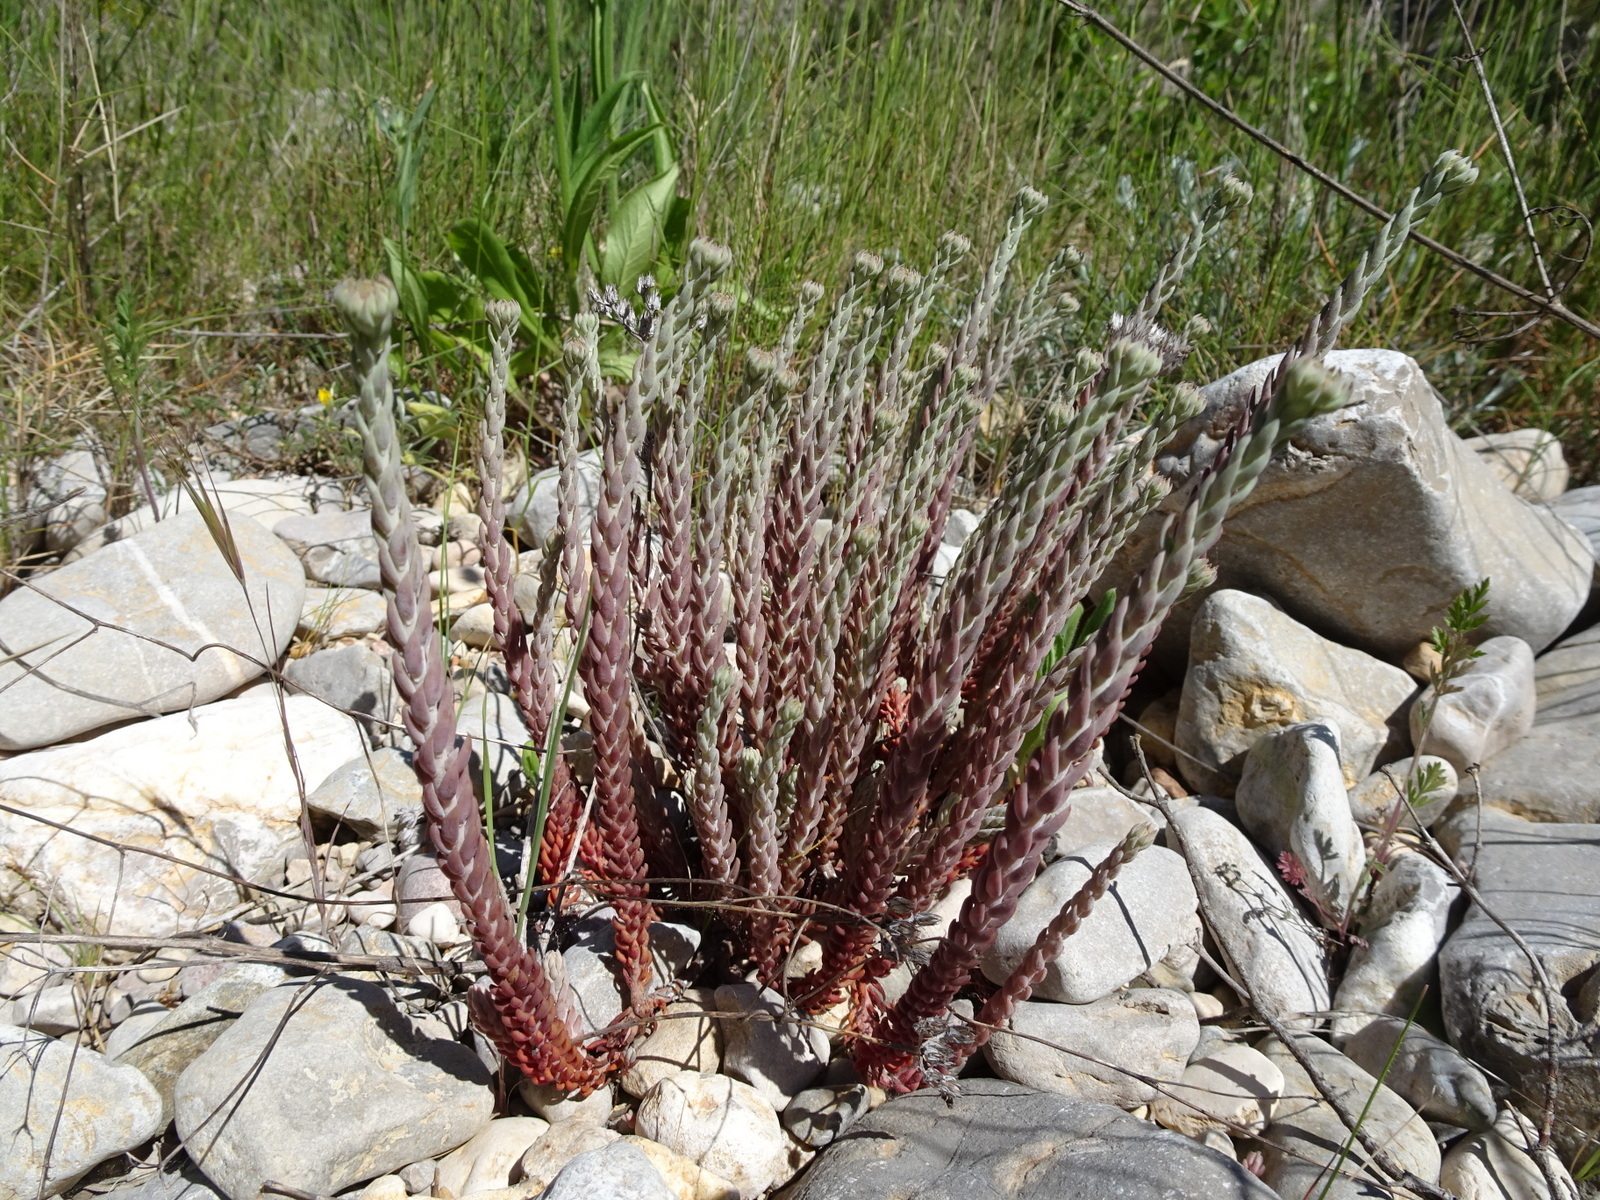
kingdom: Plantae
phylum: Tracheophyta
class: Magnoliopsida
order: Saxifragales
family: Crassulaceae
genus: Petrosedum
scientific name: Petrosedum sediforme
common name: Pale stonecrop
